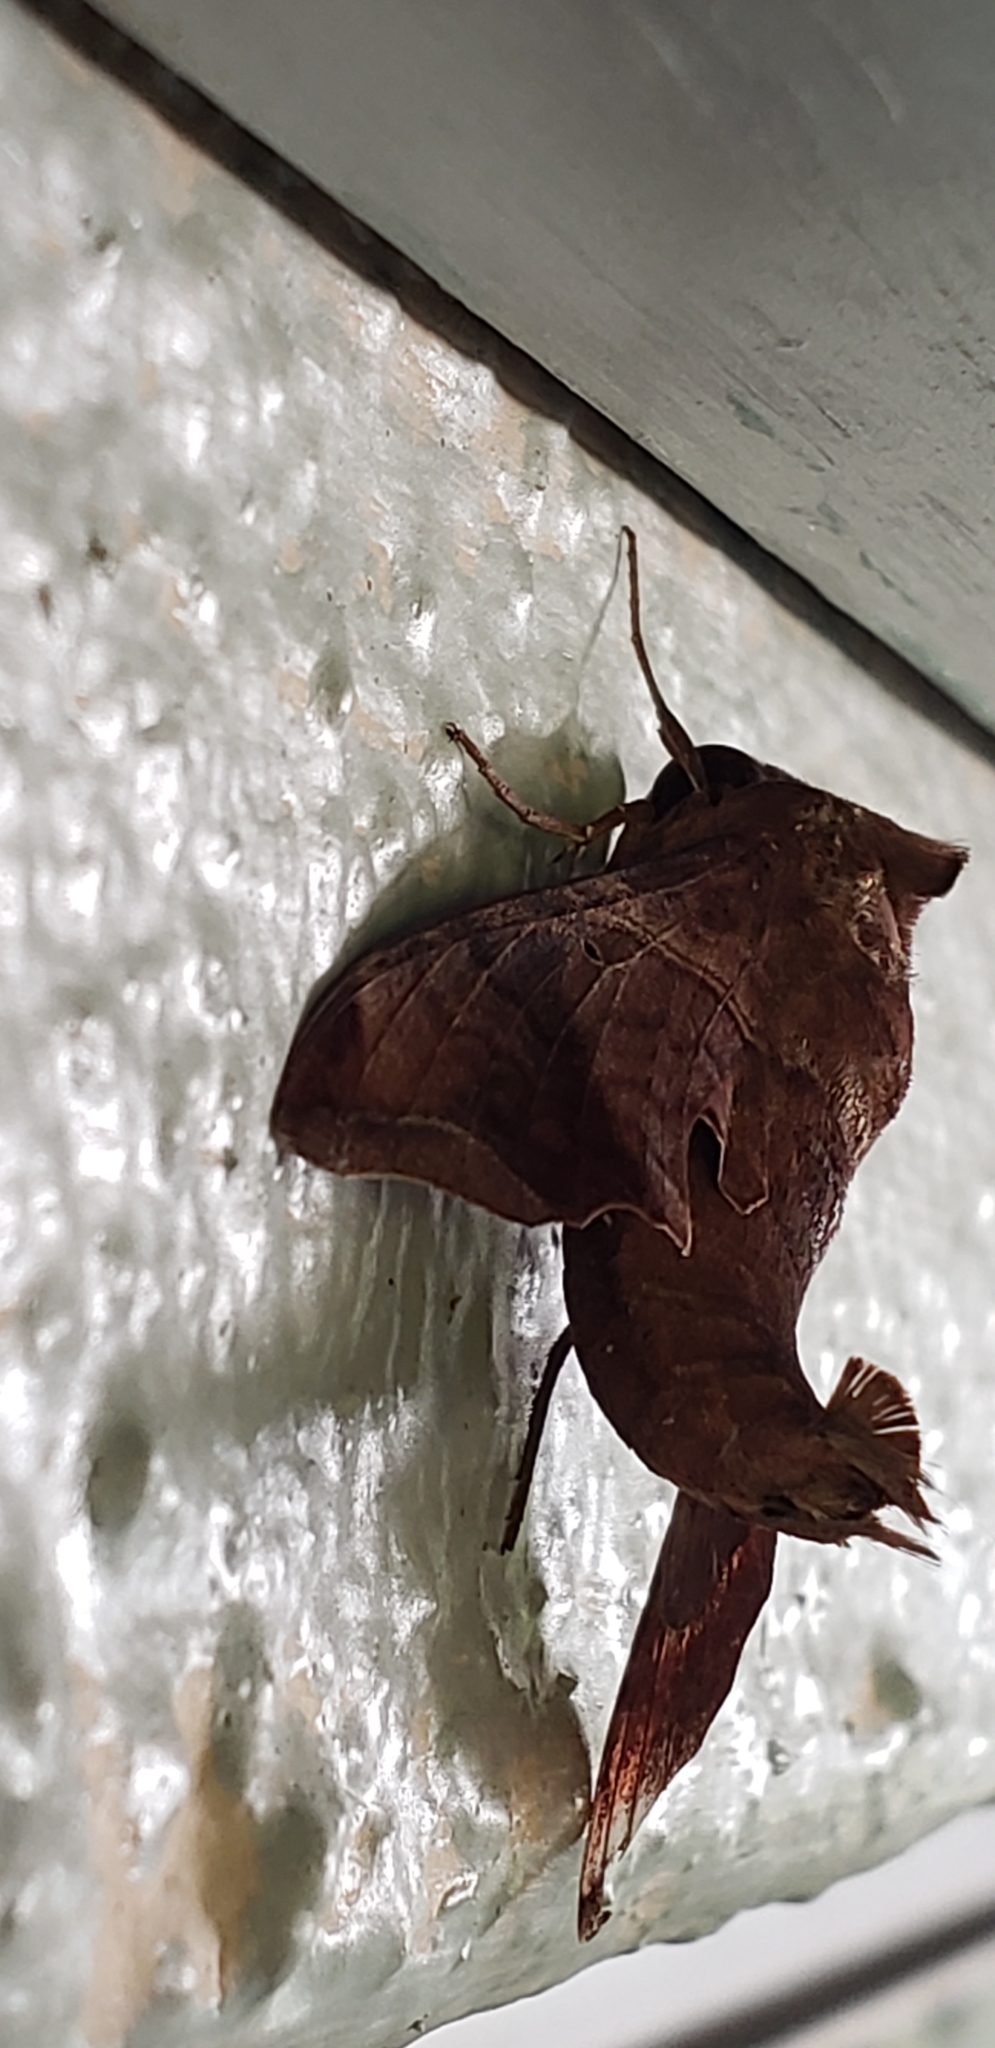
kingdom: Animalia
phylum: Arthropoda
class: Insecta
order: Lepidoptera
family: Sphingidae
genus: Enyo
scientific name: Enyo lugubris
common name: Mournful sphinx
